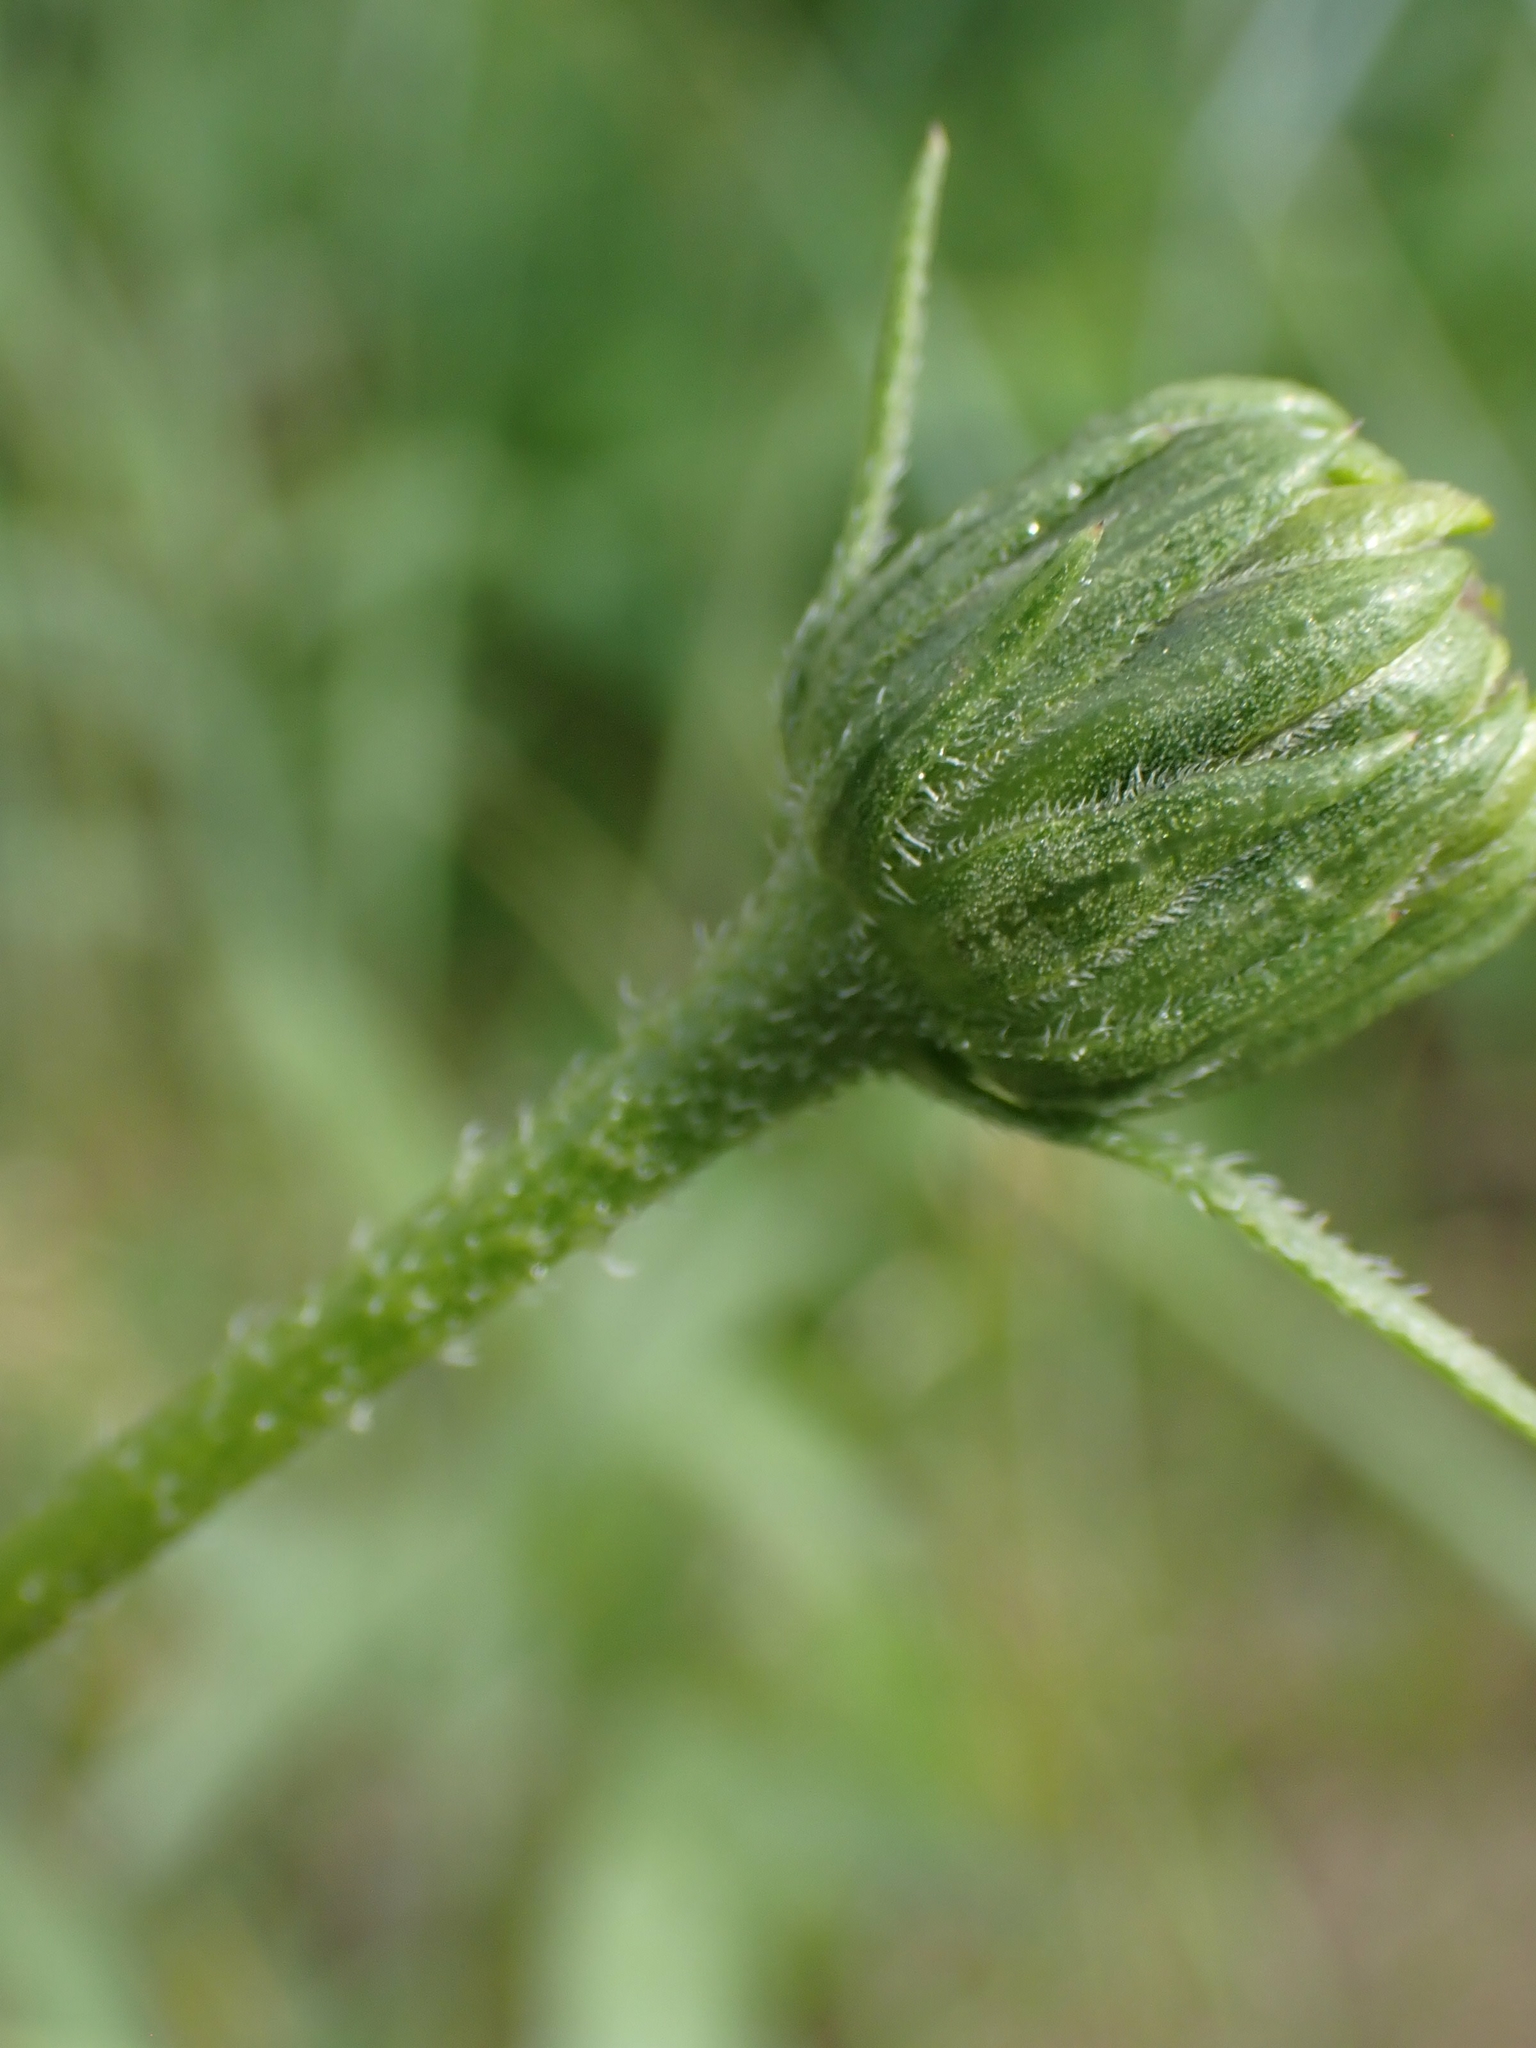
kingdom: Plantae
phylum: Tracheophyta
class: Magnoliopsida
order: Asterales
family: Asteraceae
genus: Helianthus
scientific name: Helianthus pauciflorus
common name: Stiff sunflower
